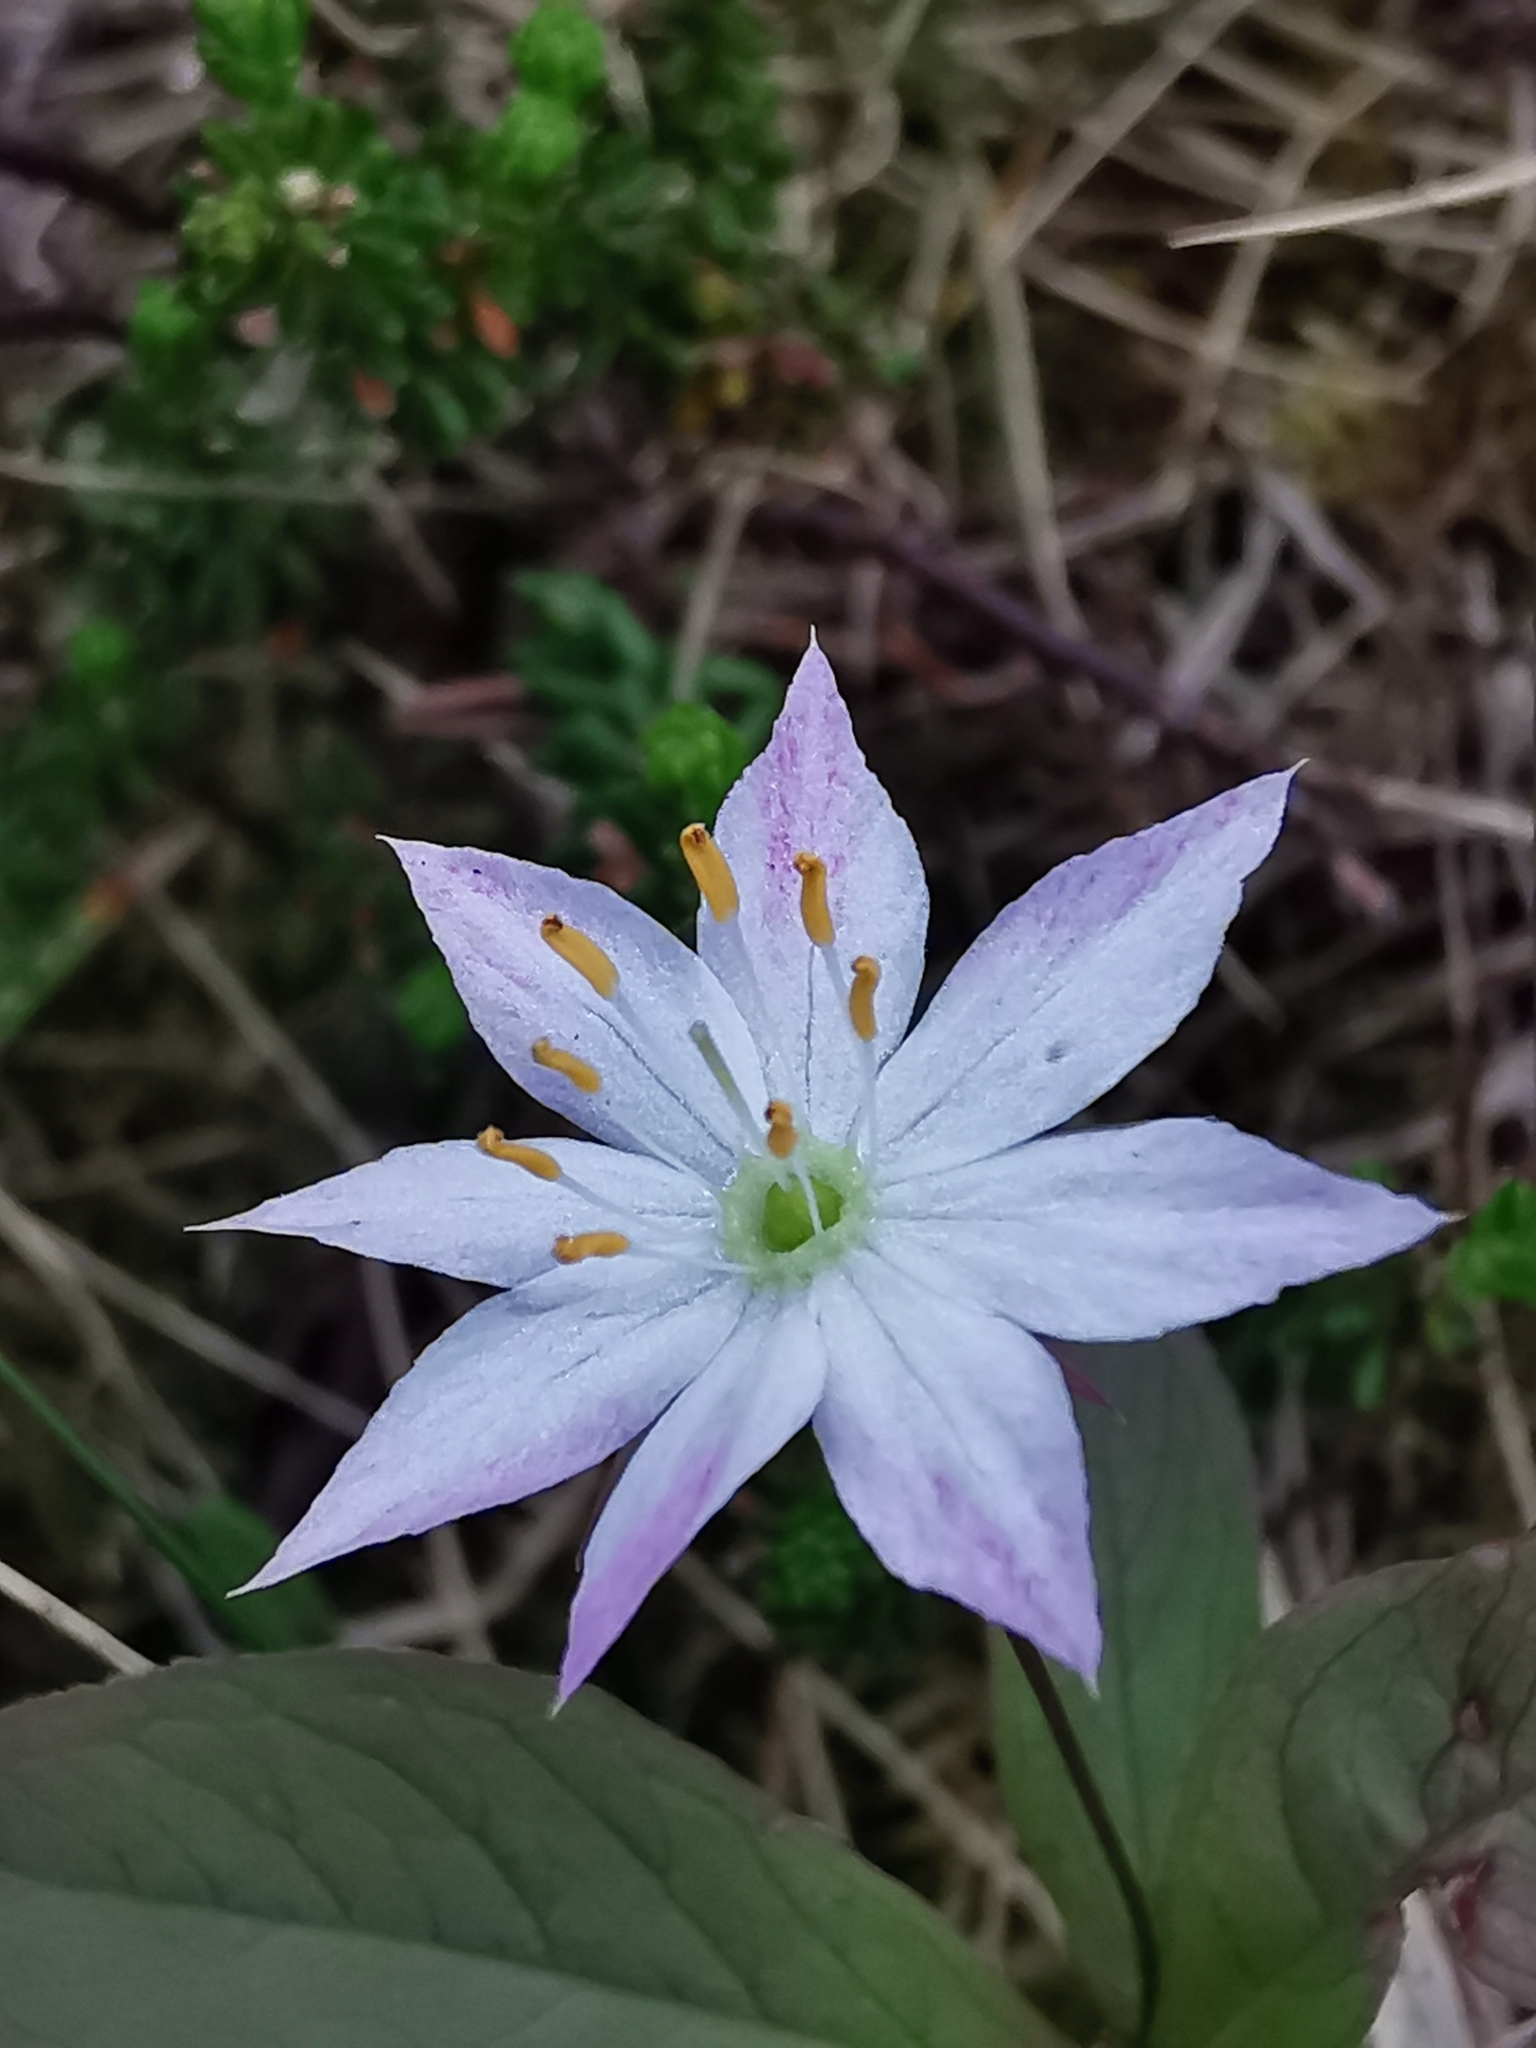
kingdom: Plantae
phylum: Tracheophyta
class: Magnoliopsida
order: Ericales
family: Primulaceae
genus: Lysimachia
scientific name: Lysimachia europaea
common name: Arctic starflower
